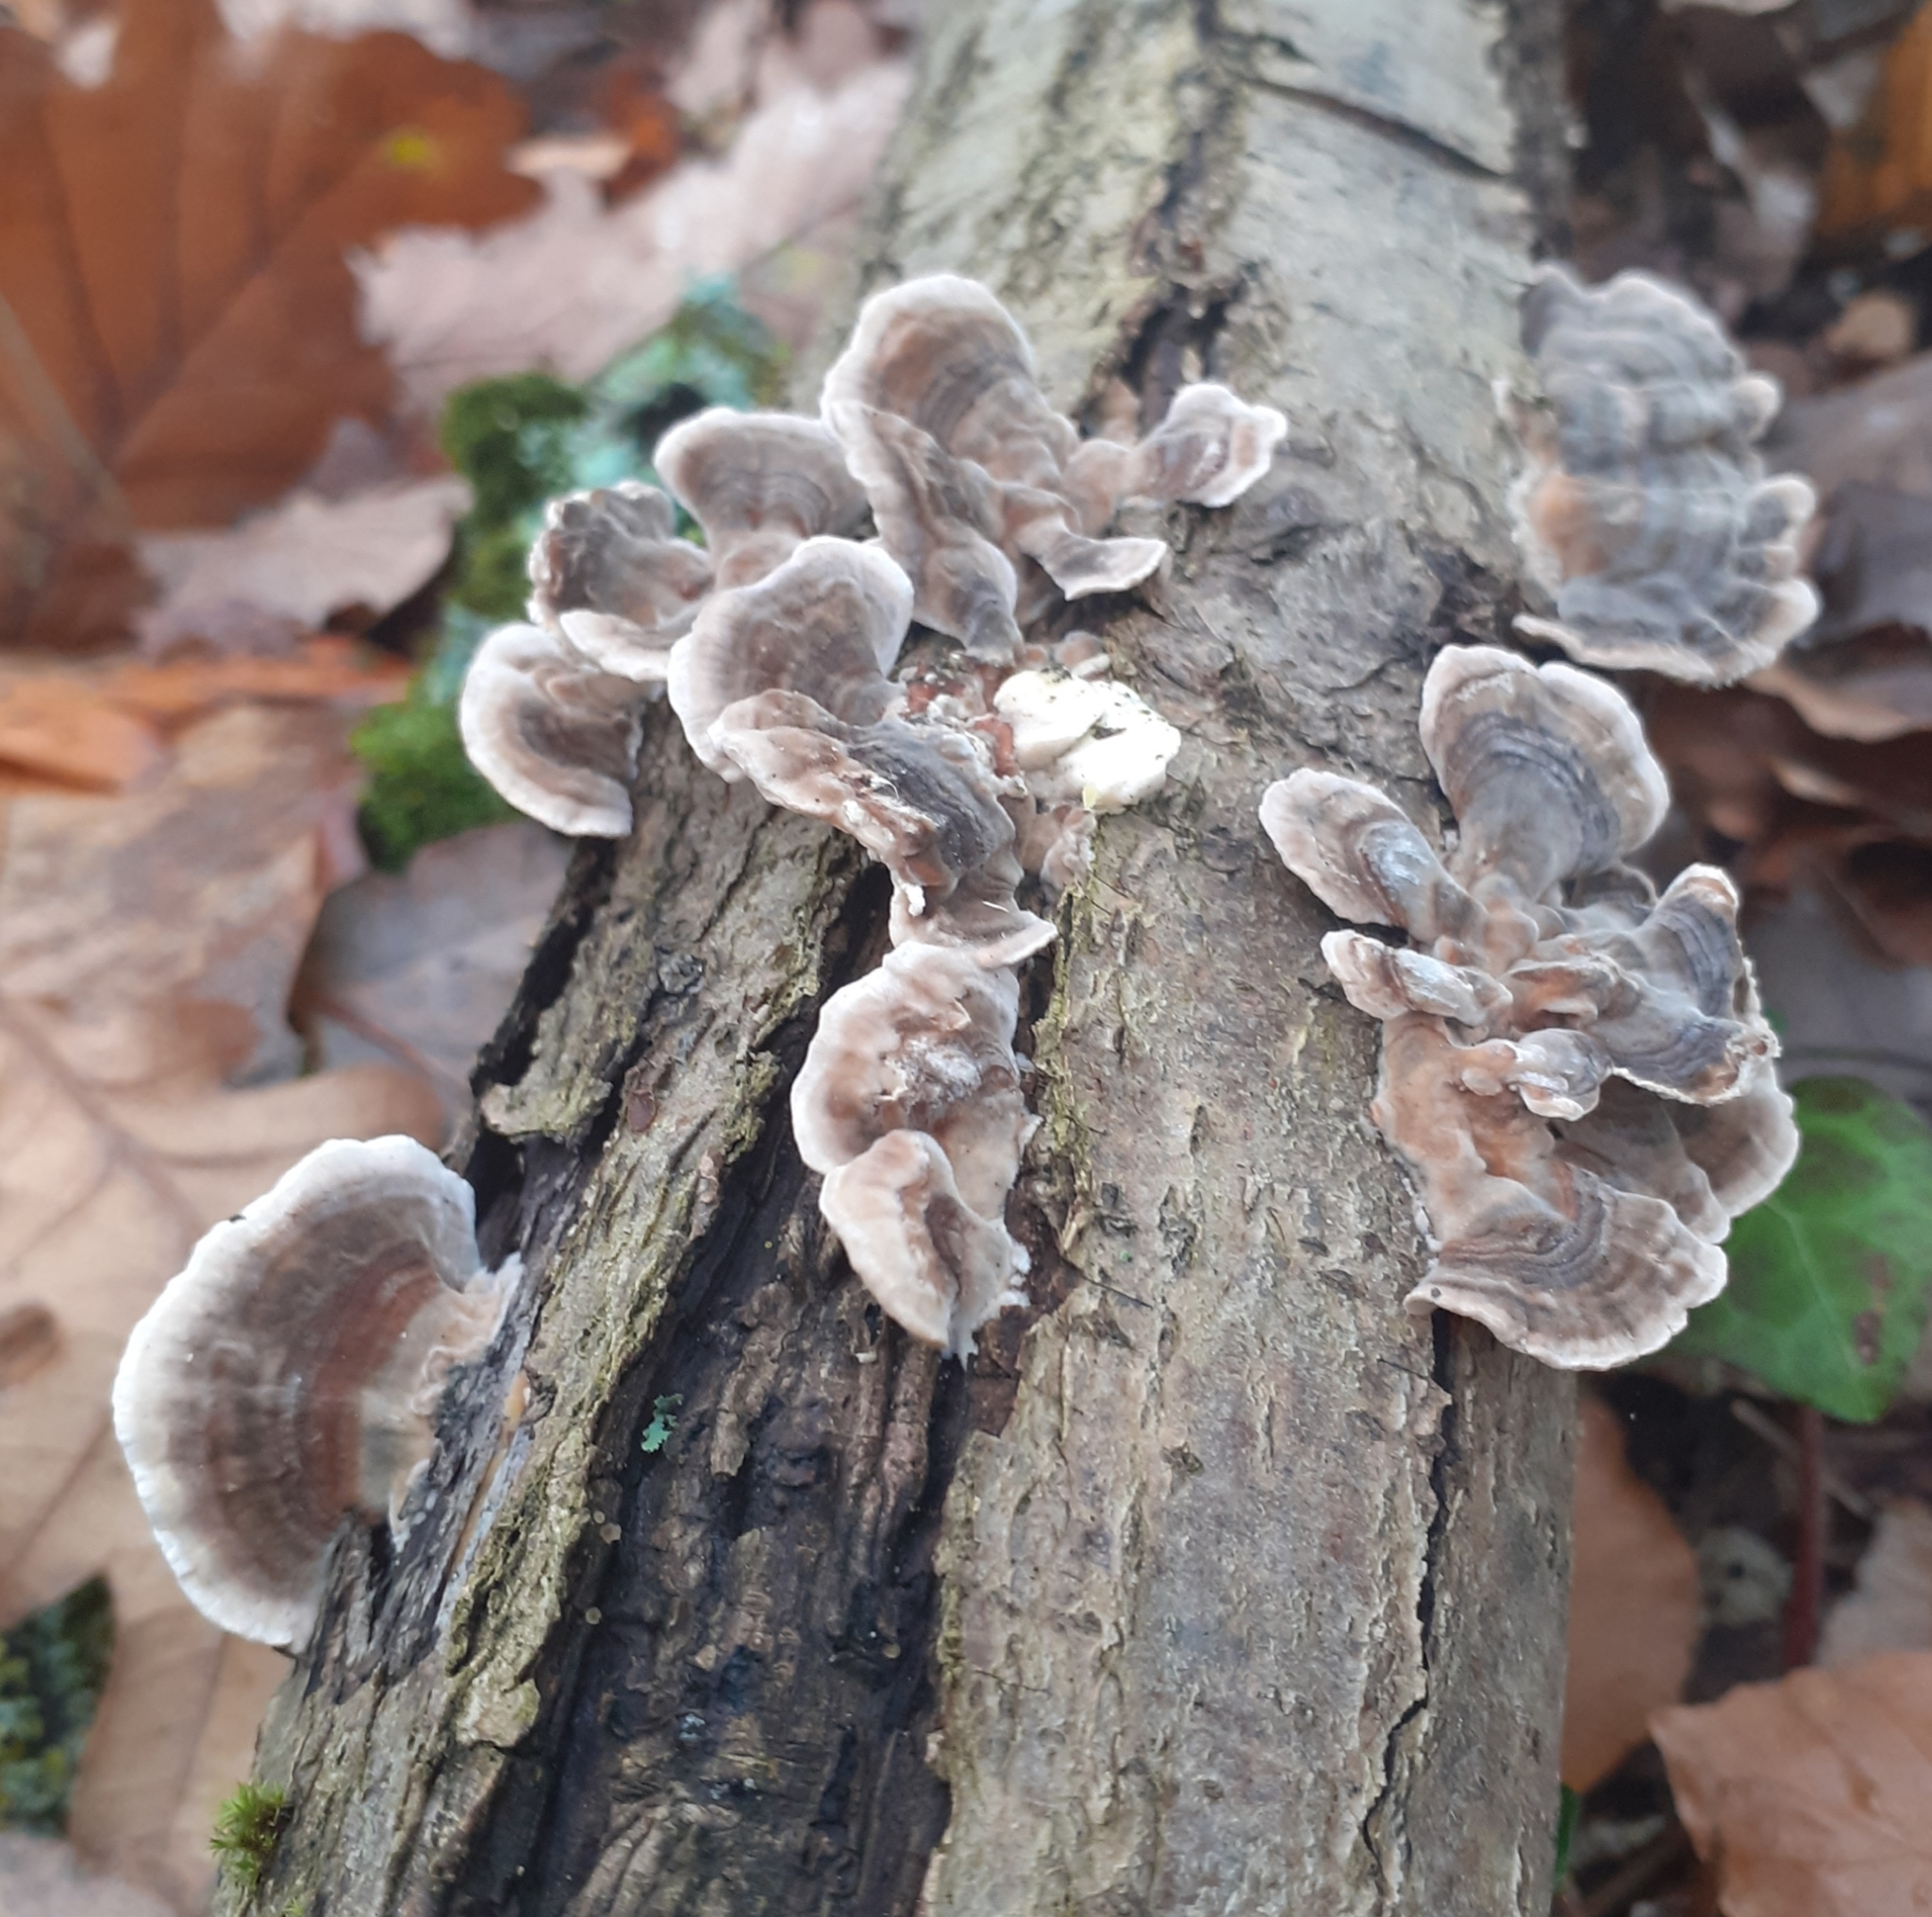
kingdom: Fungi
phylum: Basidiomycota
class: Agaricomycetes
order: Polyporales
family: Polyporaceae
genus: Trametes
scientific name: Trametes versicolor
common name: Turkeytail
